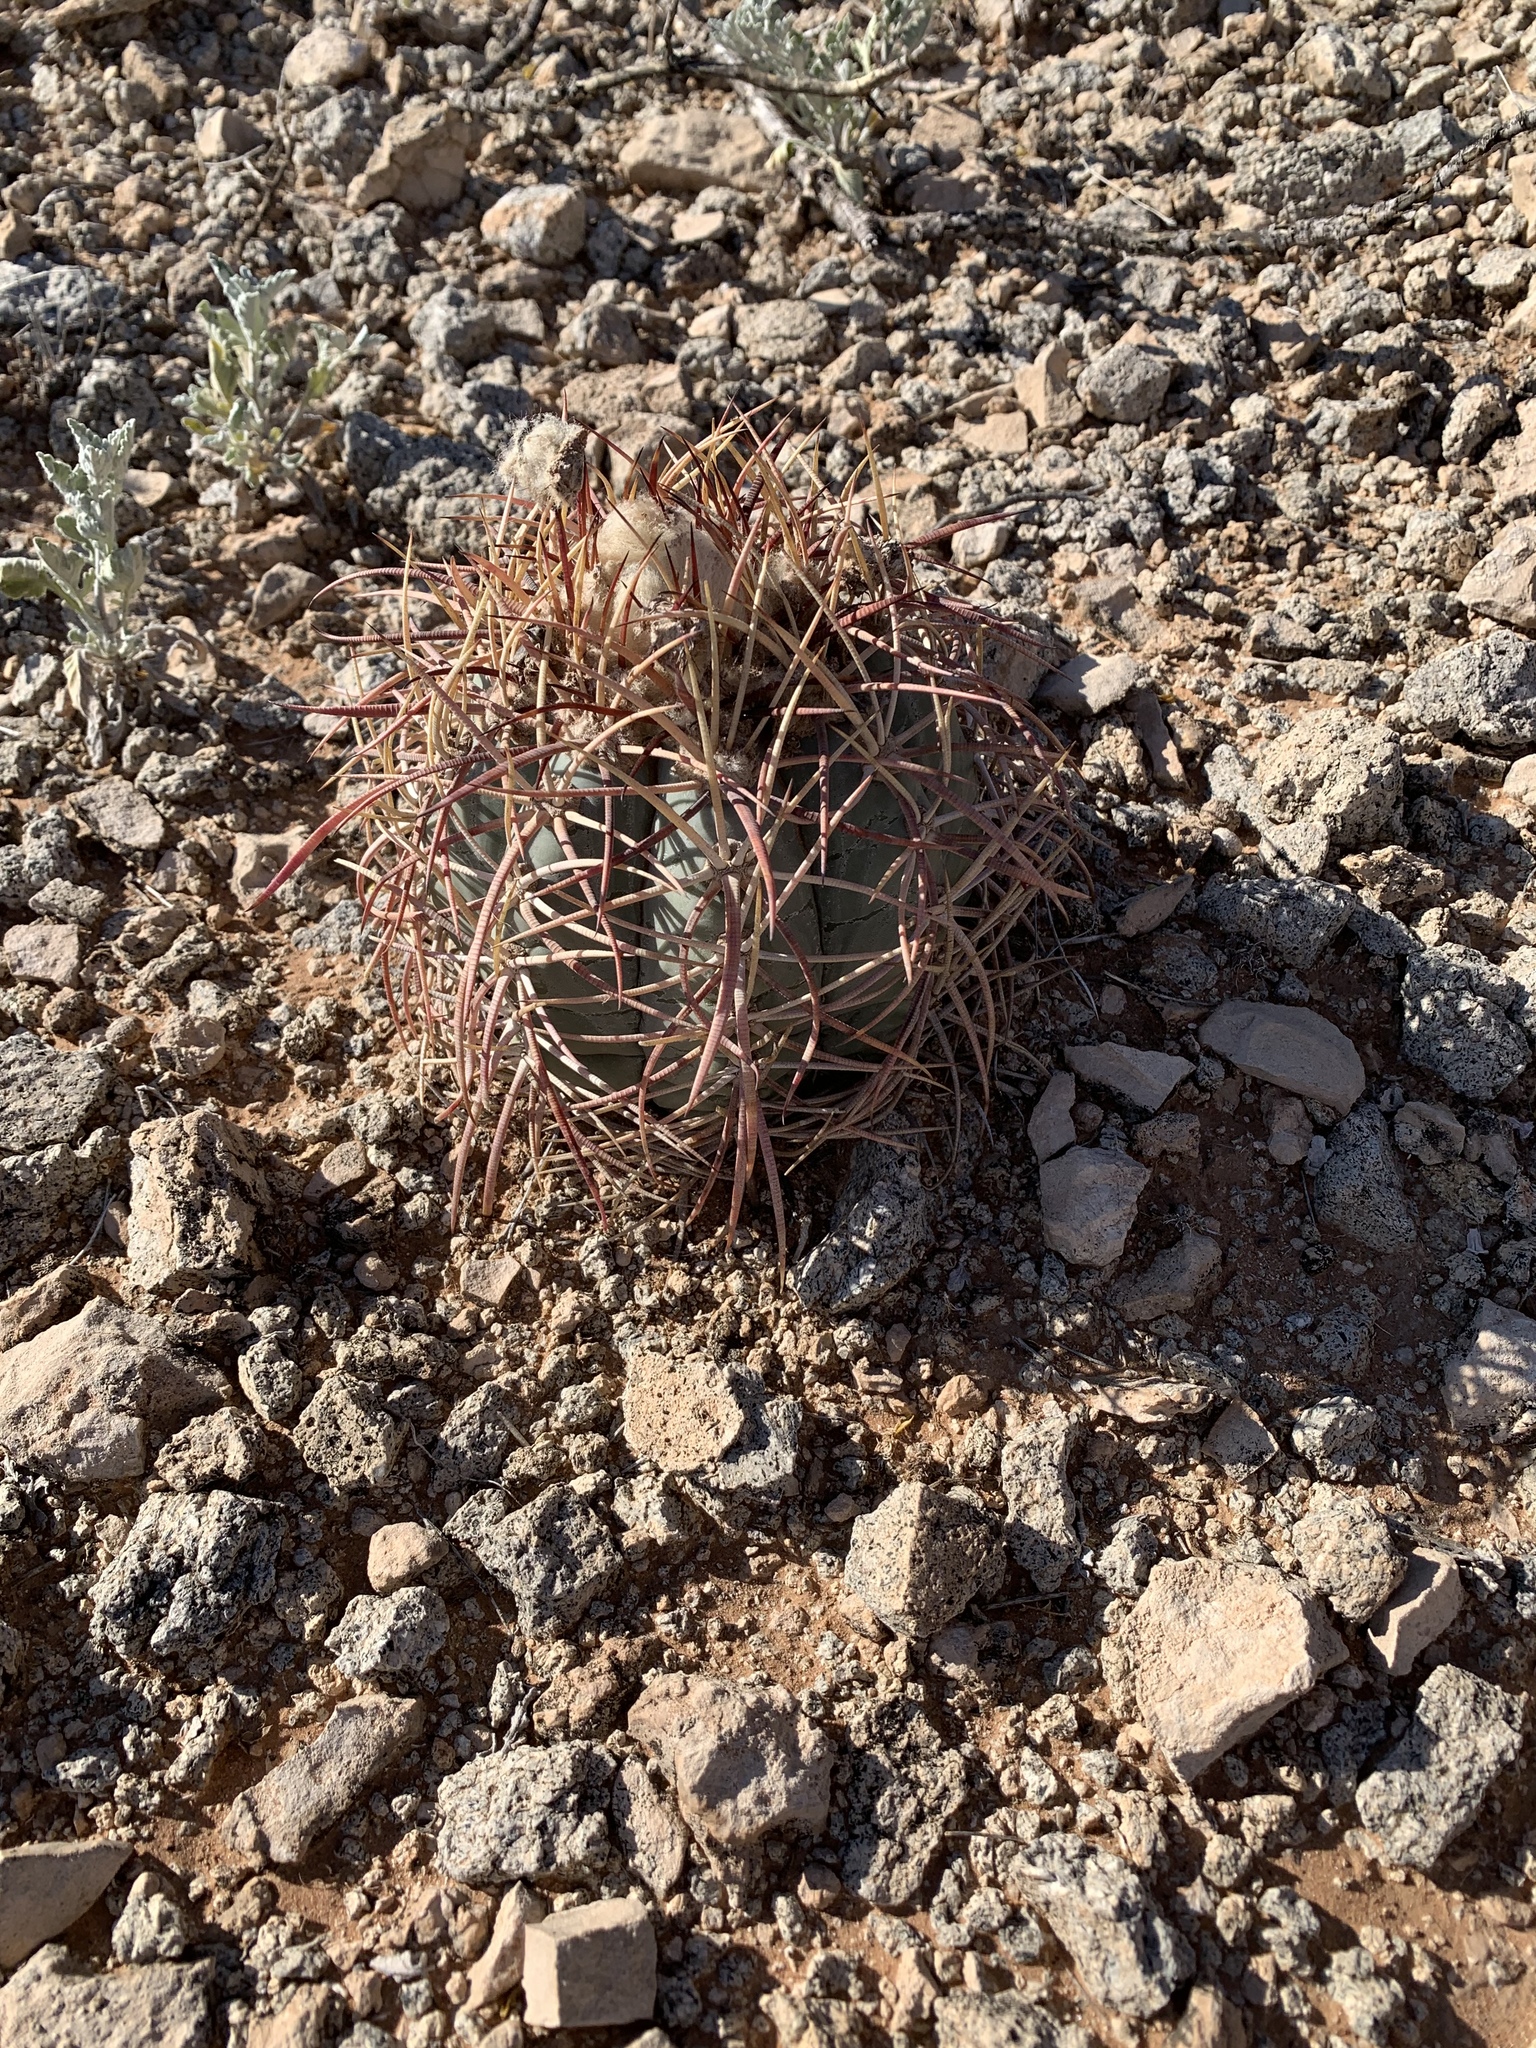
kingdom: Plantae
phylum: Tracheophyta
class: Magnoliopsida
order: Caryophyllales
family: Cactaceae
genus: Echinocactus
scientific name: Echinocactus horizonthalonius
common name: Devilshead
